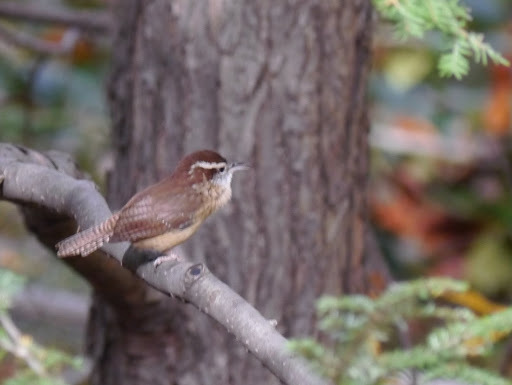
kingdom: Animalia
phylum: Chordata
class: Aves
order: Passeriformes
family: Troglodytidae
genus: Thryothorus
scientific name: Thryothorus ludovicianus
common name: Carolina wren
